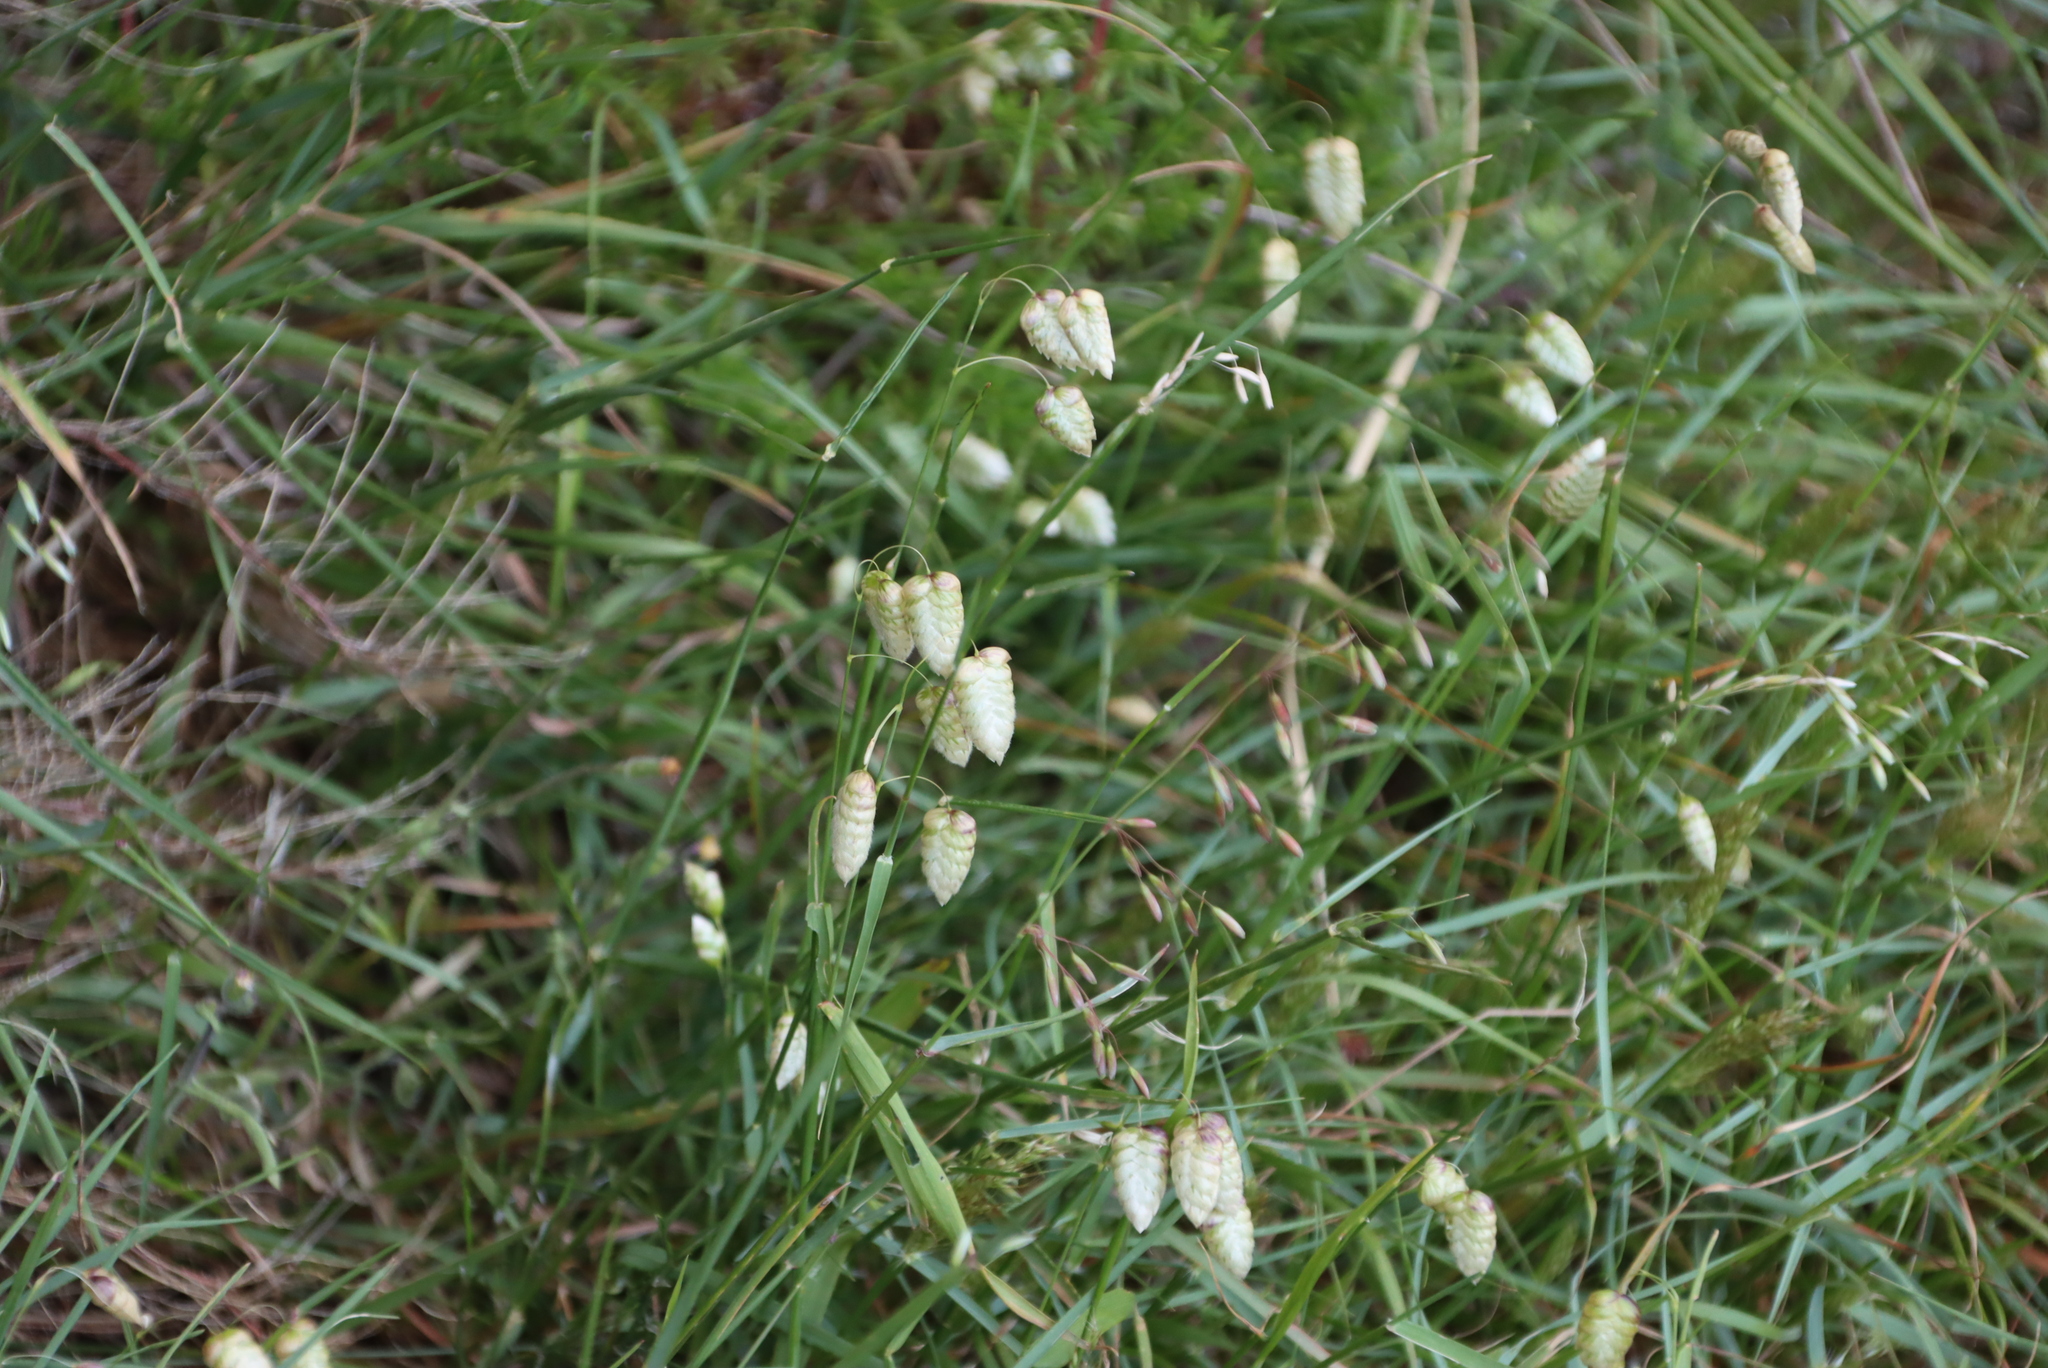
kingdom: Plantae
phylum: Tracheophyta
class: Liliopsida
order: Poales
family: Poaceae
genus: Briza
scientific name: Briza maxima
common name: Big quakinggrass
